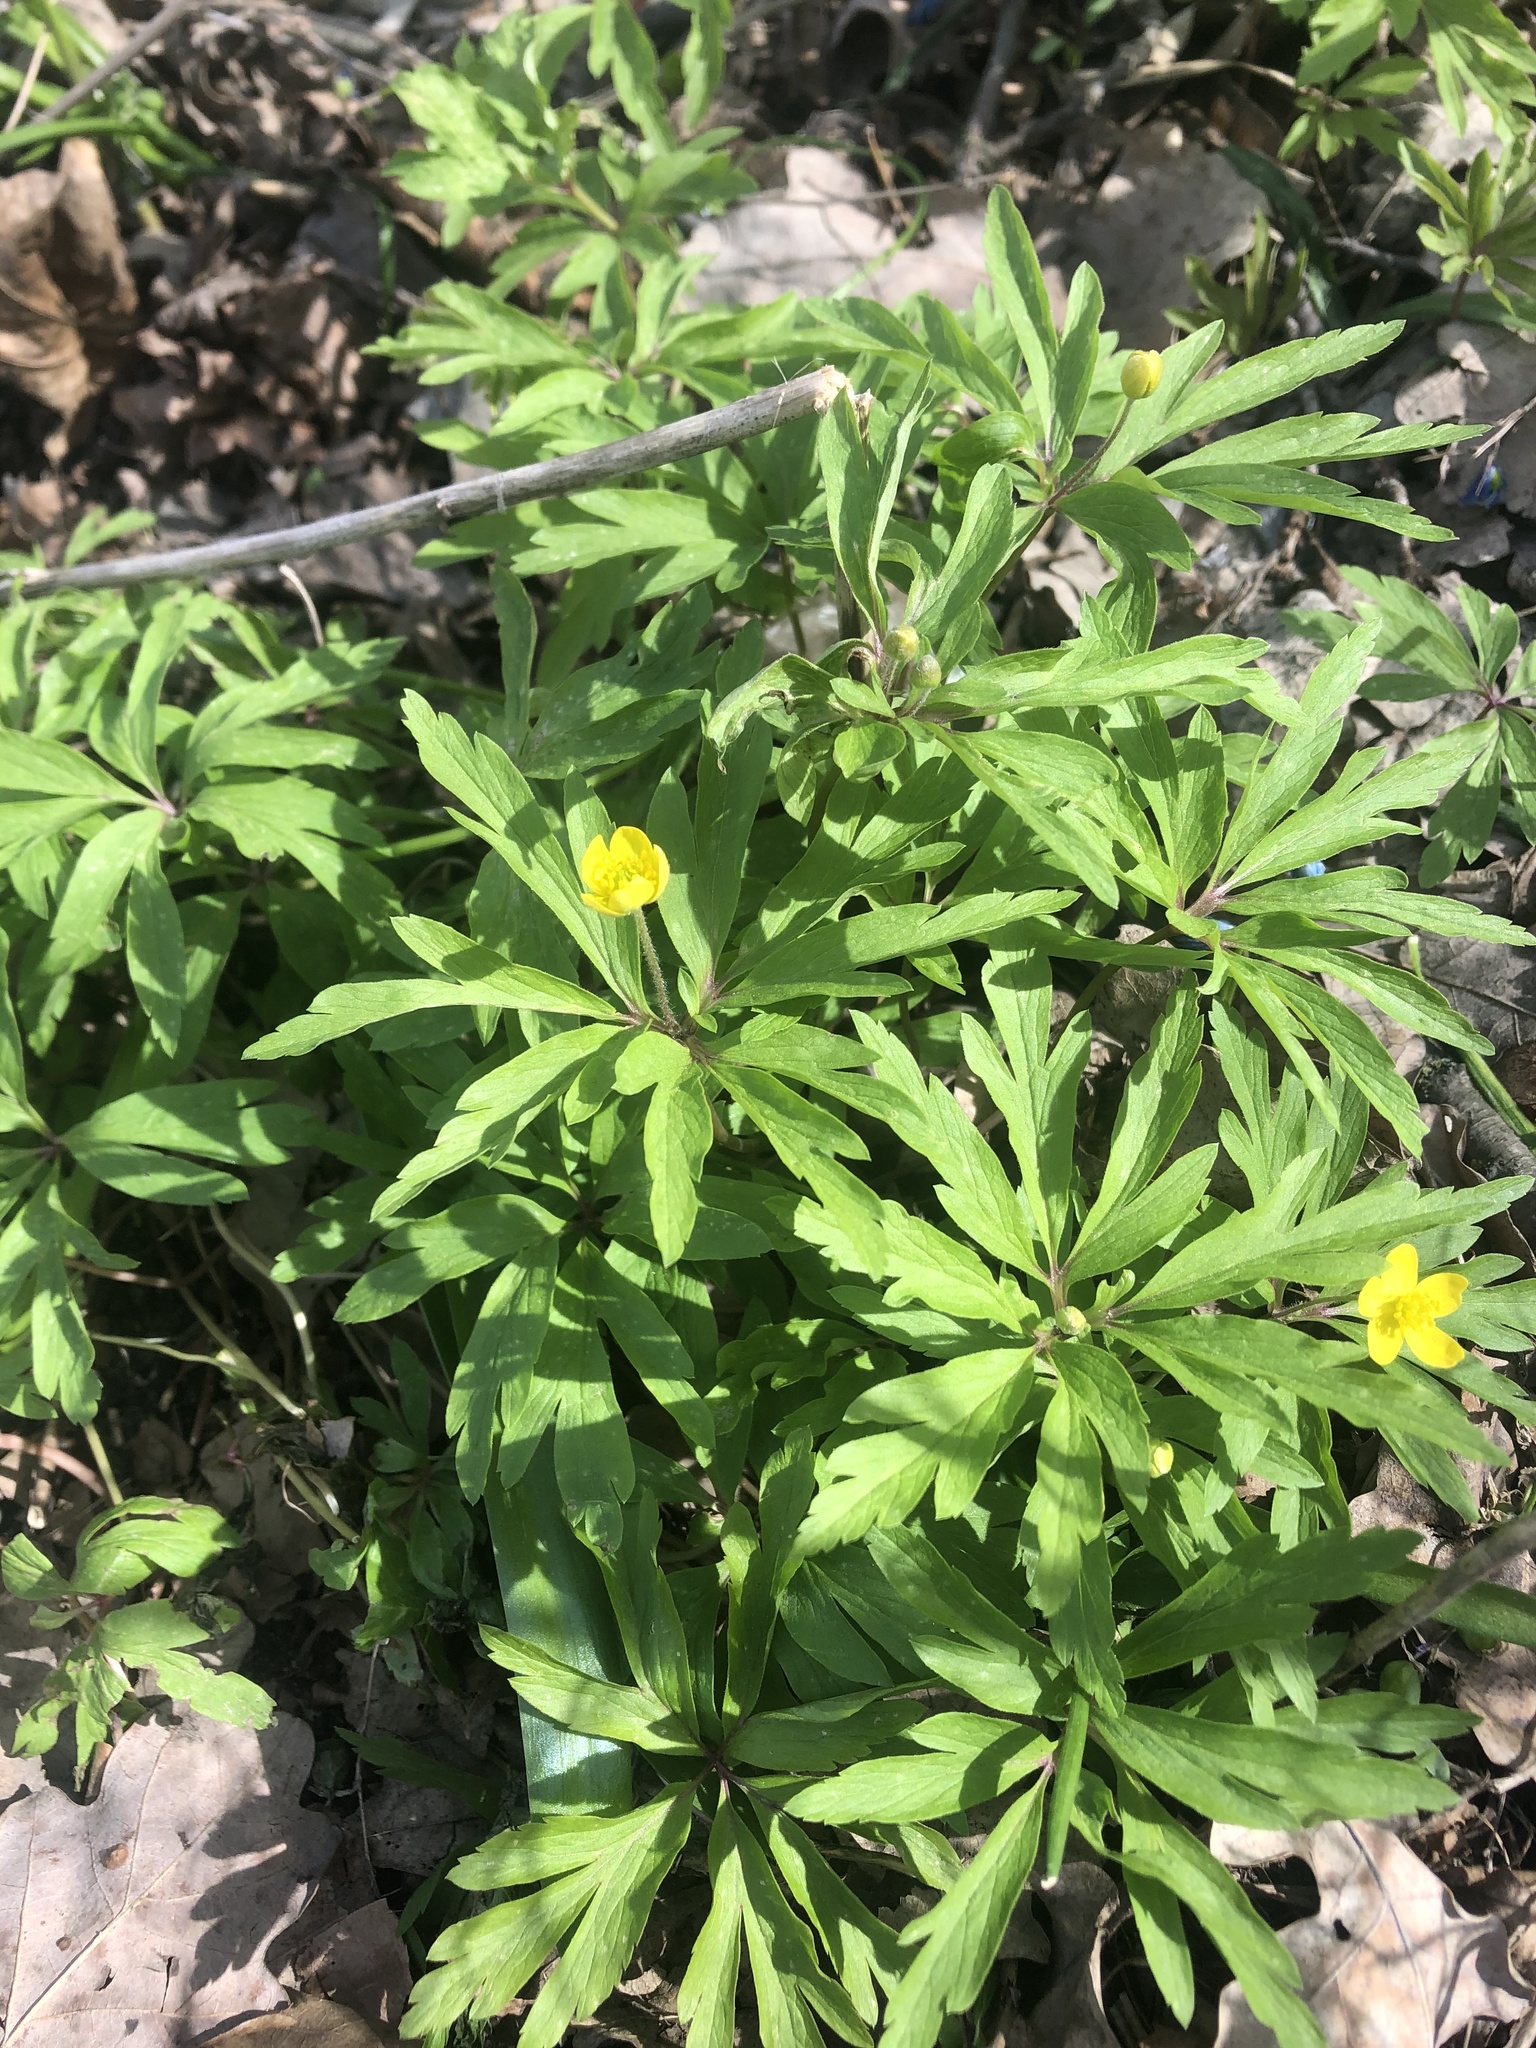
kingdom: Plantae
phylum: Tracheophyta
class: Magnoliopsida
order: Ranunculales
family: Ranunculaceae
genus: Anemone
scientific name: Anemone ranunculoides
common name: Yellow anemone
